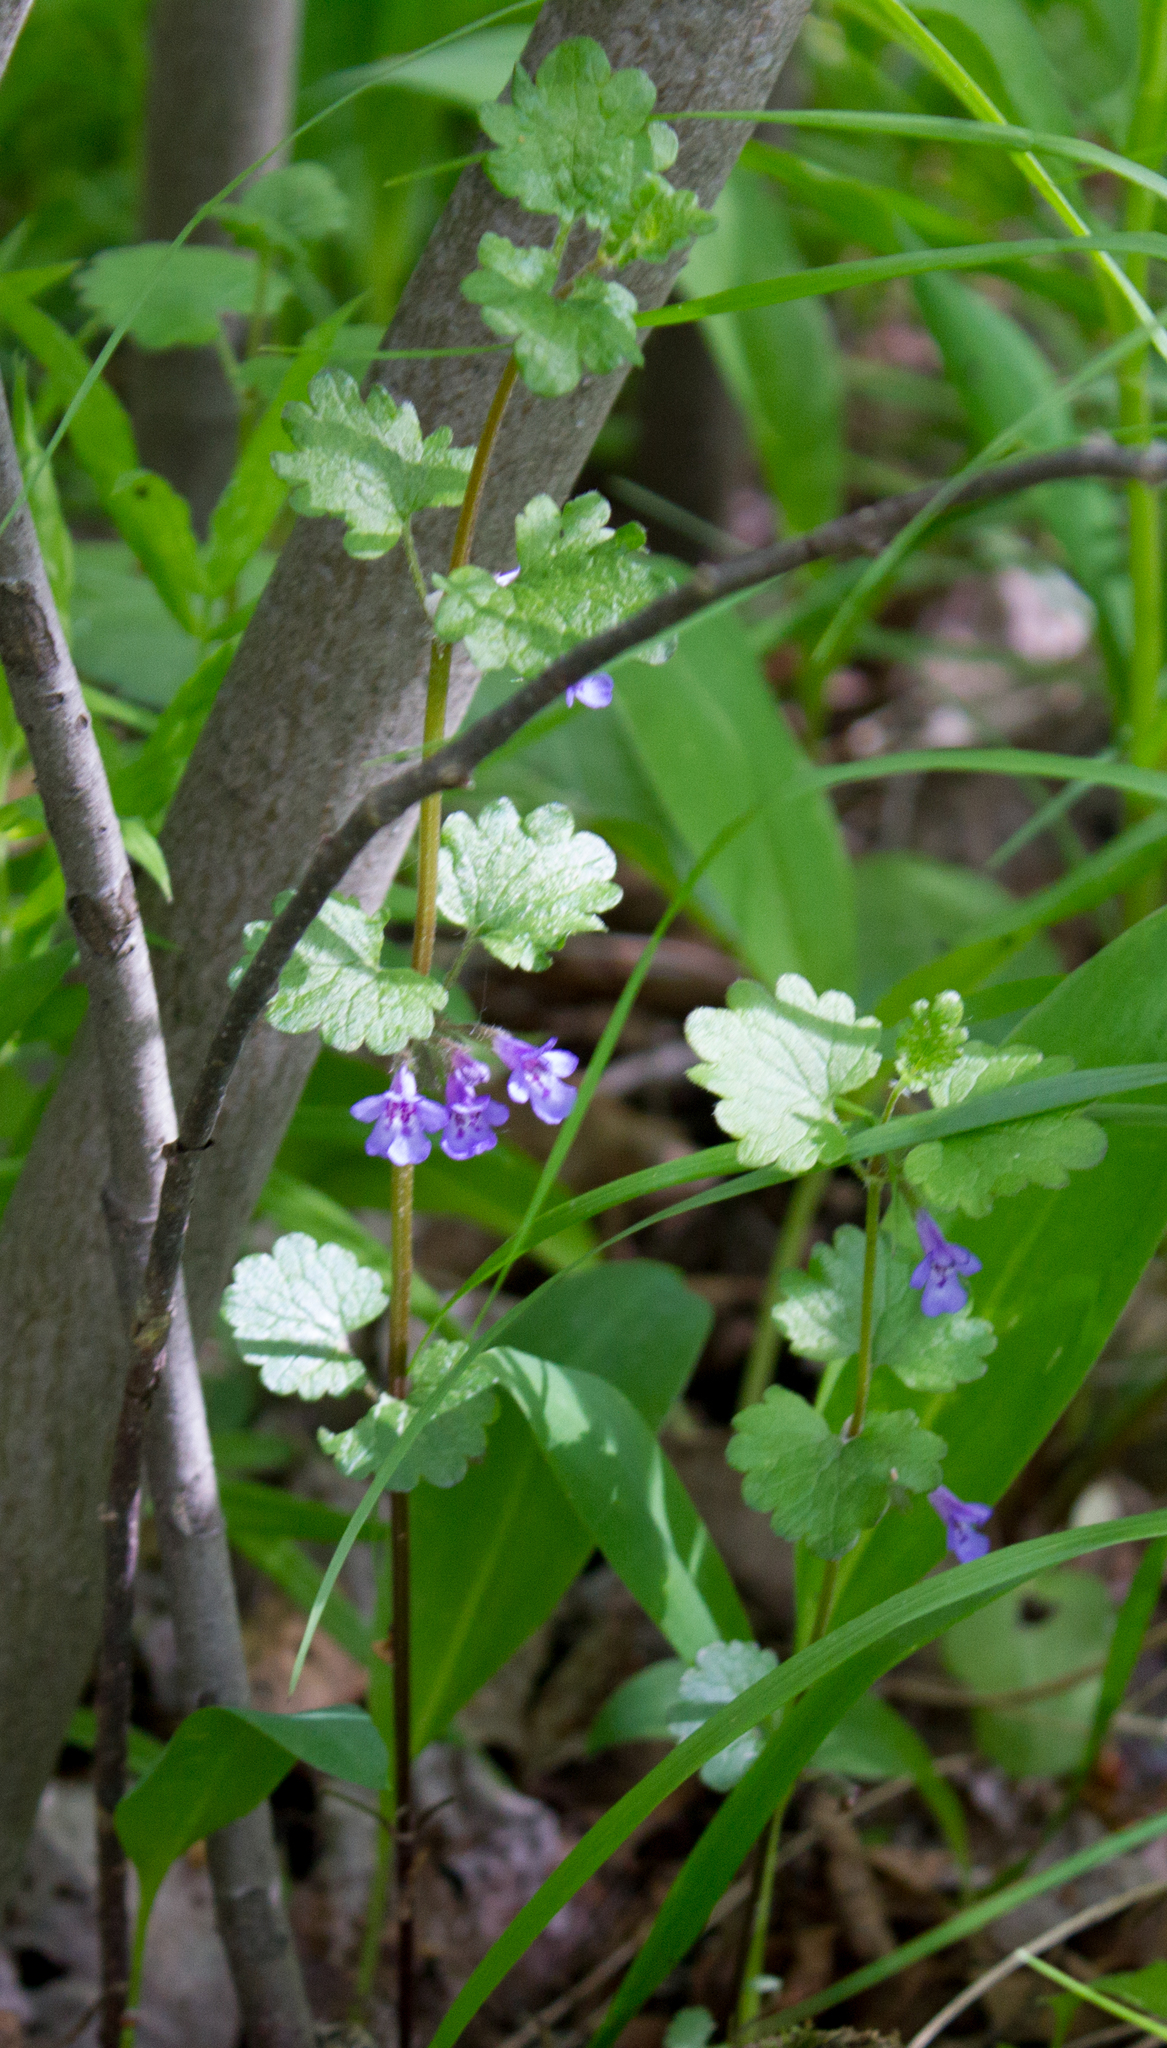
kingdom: Plantae
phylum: Tracheophyta
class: Magnoliopsida
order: Lamiales
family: Lamiaceae
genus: Glechoma
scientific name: Glechoma hederacea
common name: Ground ivy
